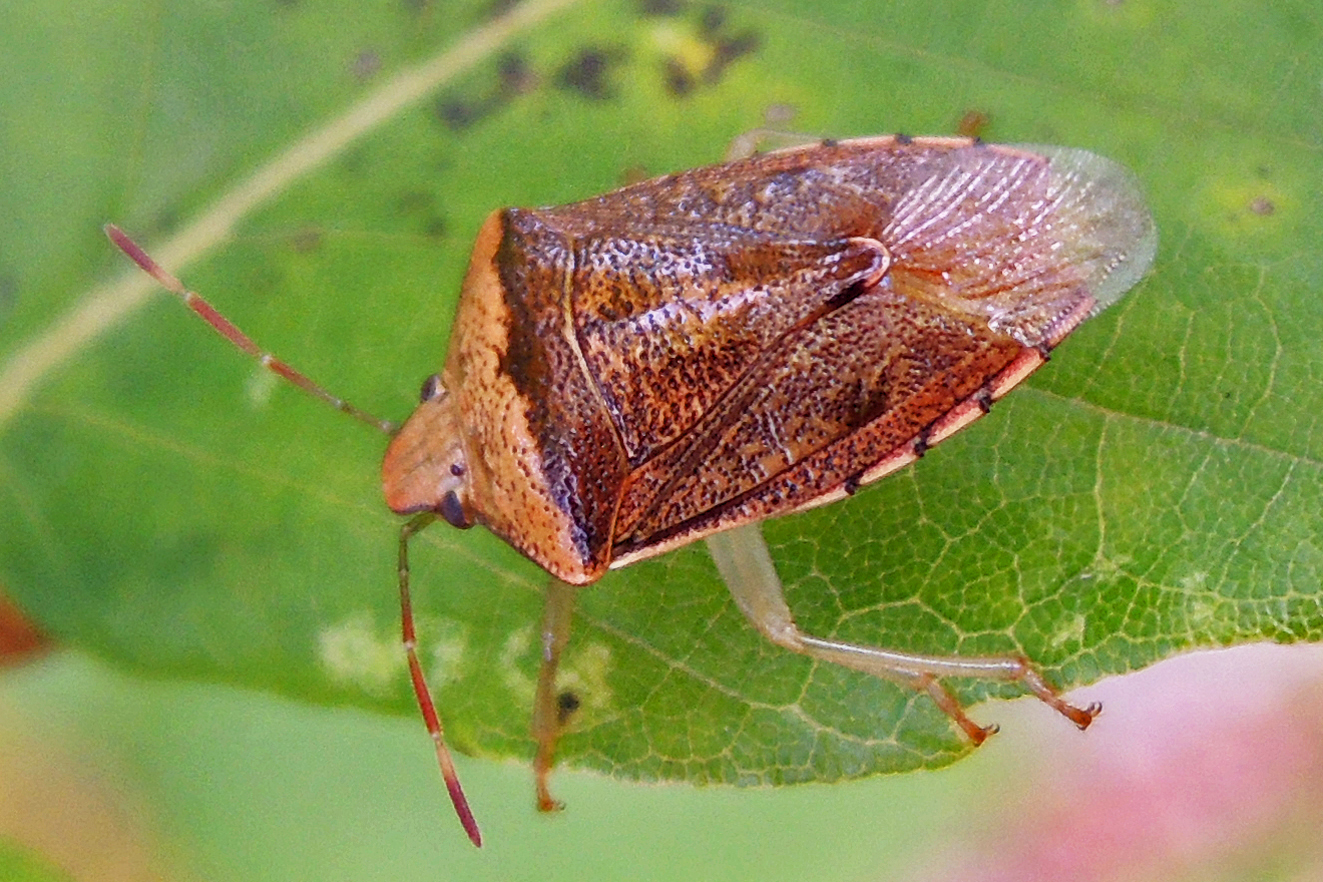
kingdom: Animalia
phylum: Arthropoda
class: Insecta
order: Hemiptera
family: Pentatomidae
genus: Banasa
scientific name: Banasa calva
